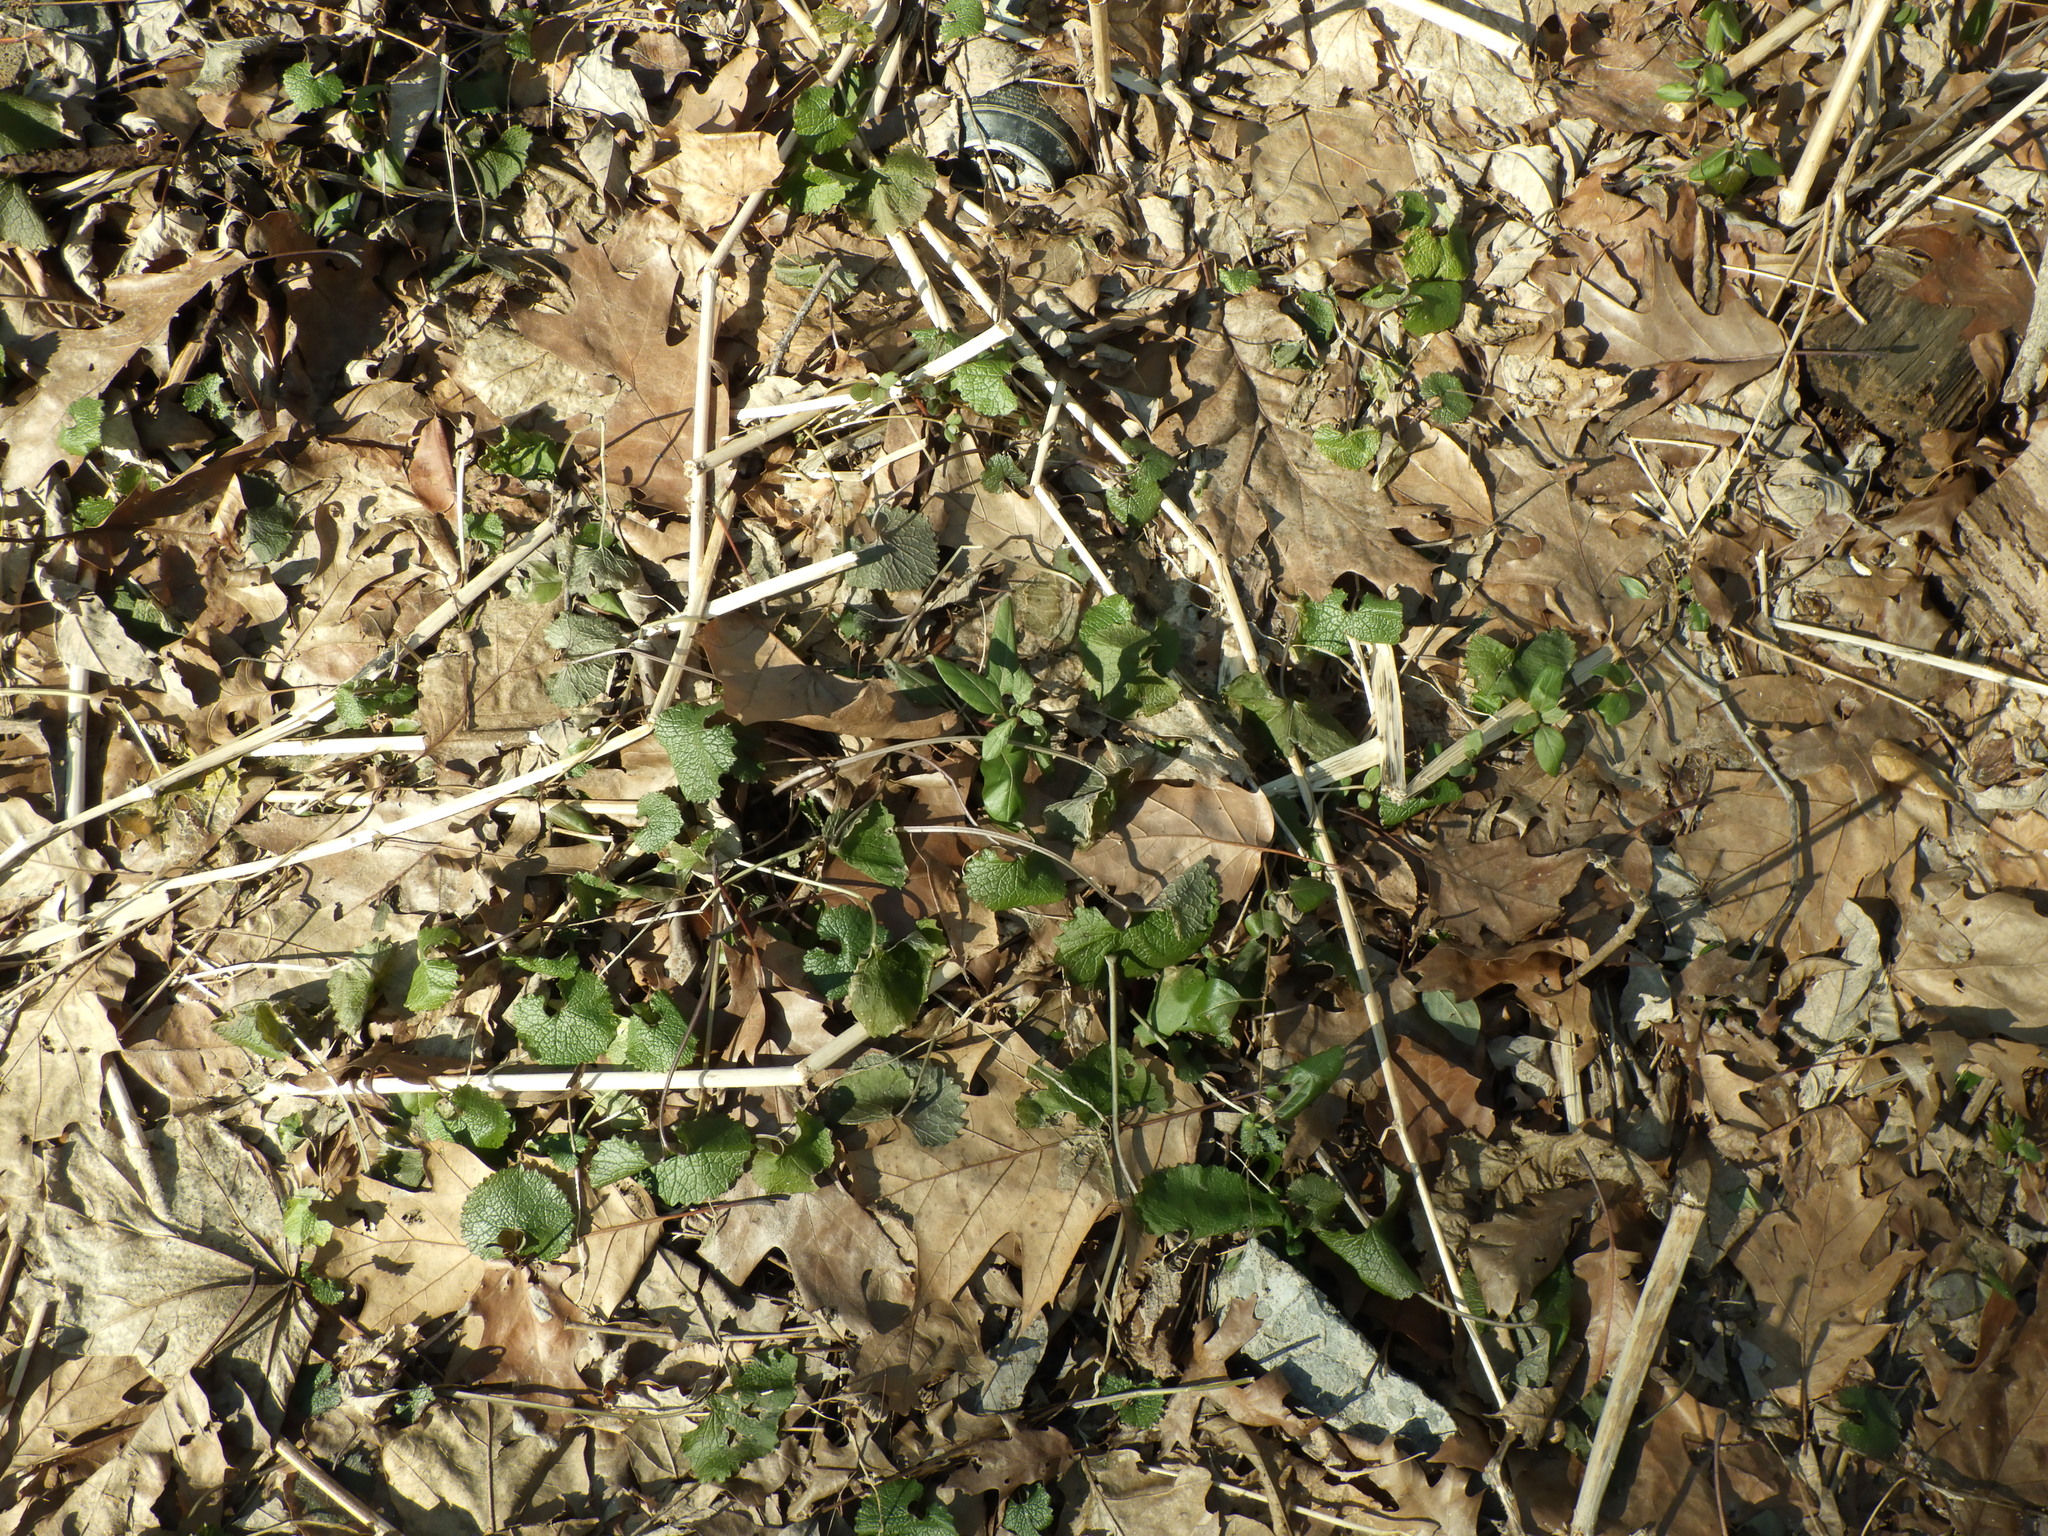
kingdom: Plantae
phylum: Tracheophyta
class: Magnoliopsida
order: Brassicales
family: Brassicaceae
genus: Alliaria
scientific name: Alliaria petiolata
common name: Garlic mustard
